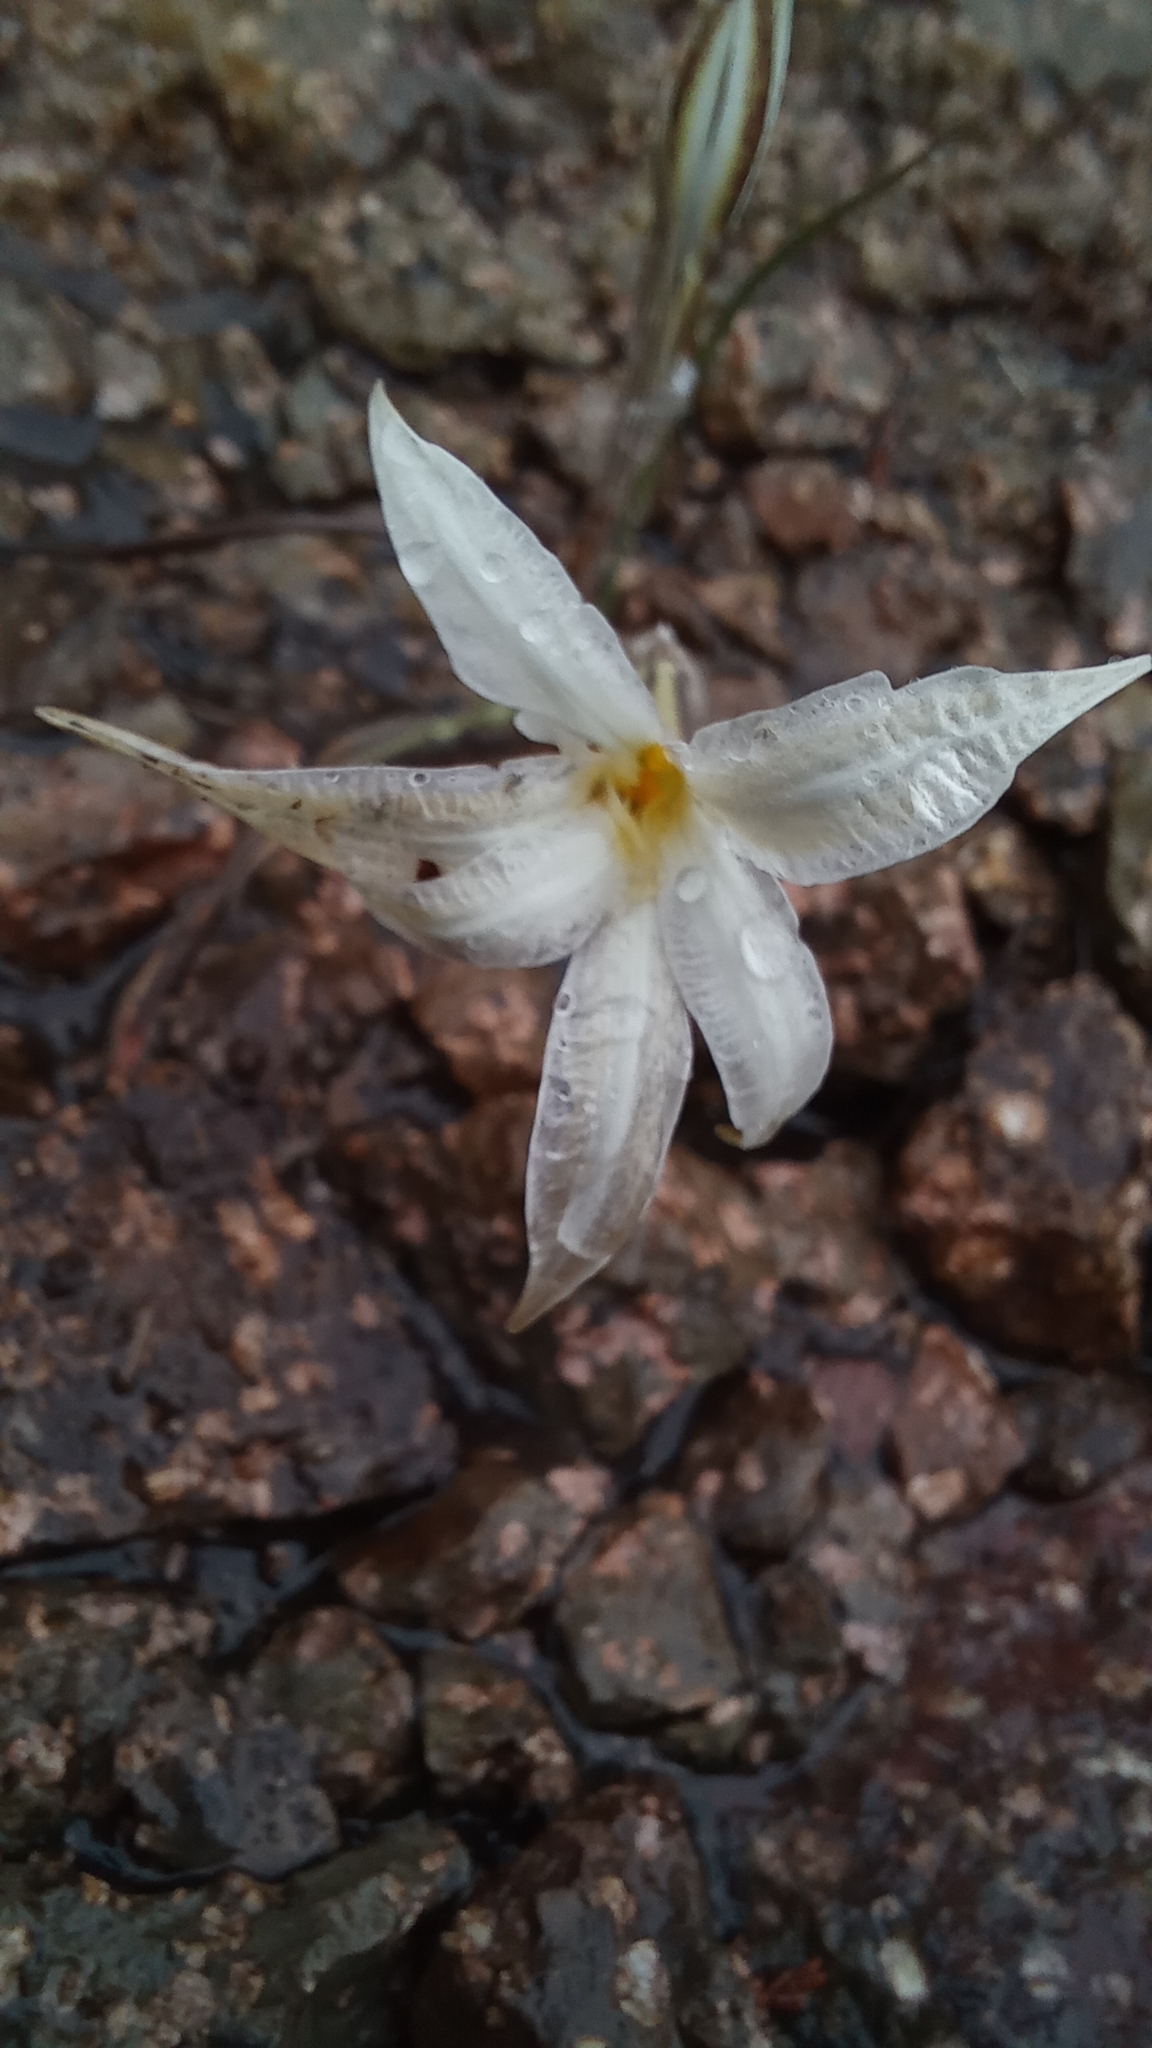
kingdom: Plantae
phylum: Tracheophyta
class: Liliopsida
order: Asparagales
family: Amaryllidaceae
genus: Tristagma
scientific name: Tristagma patagonicum
